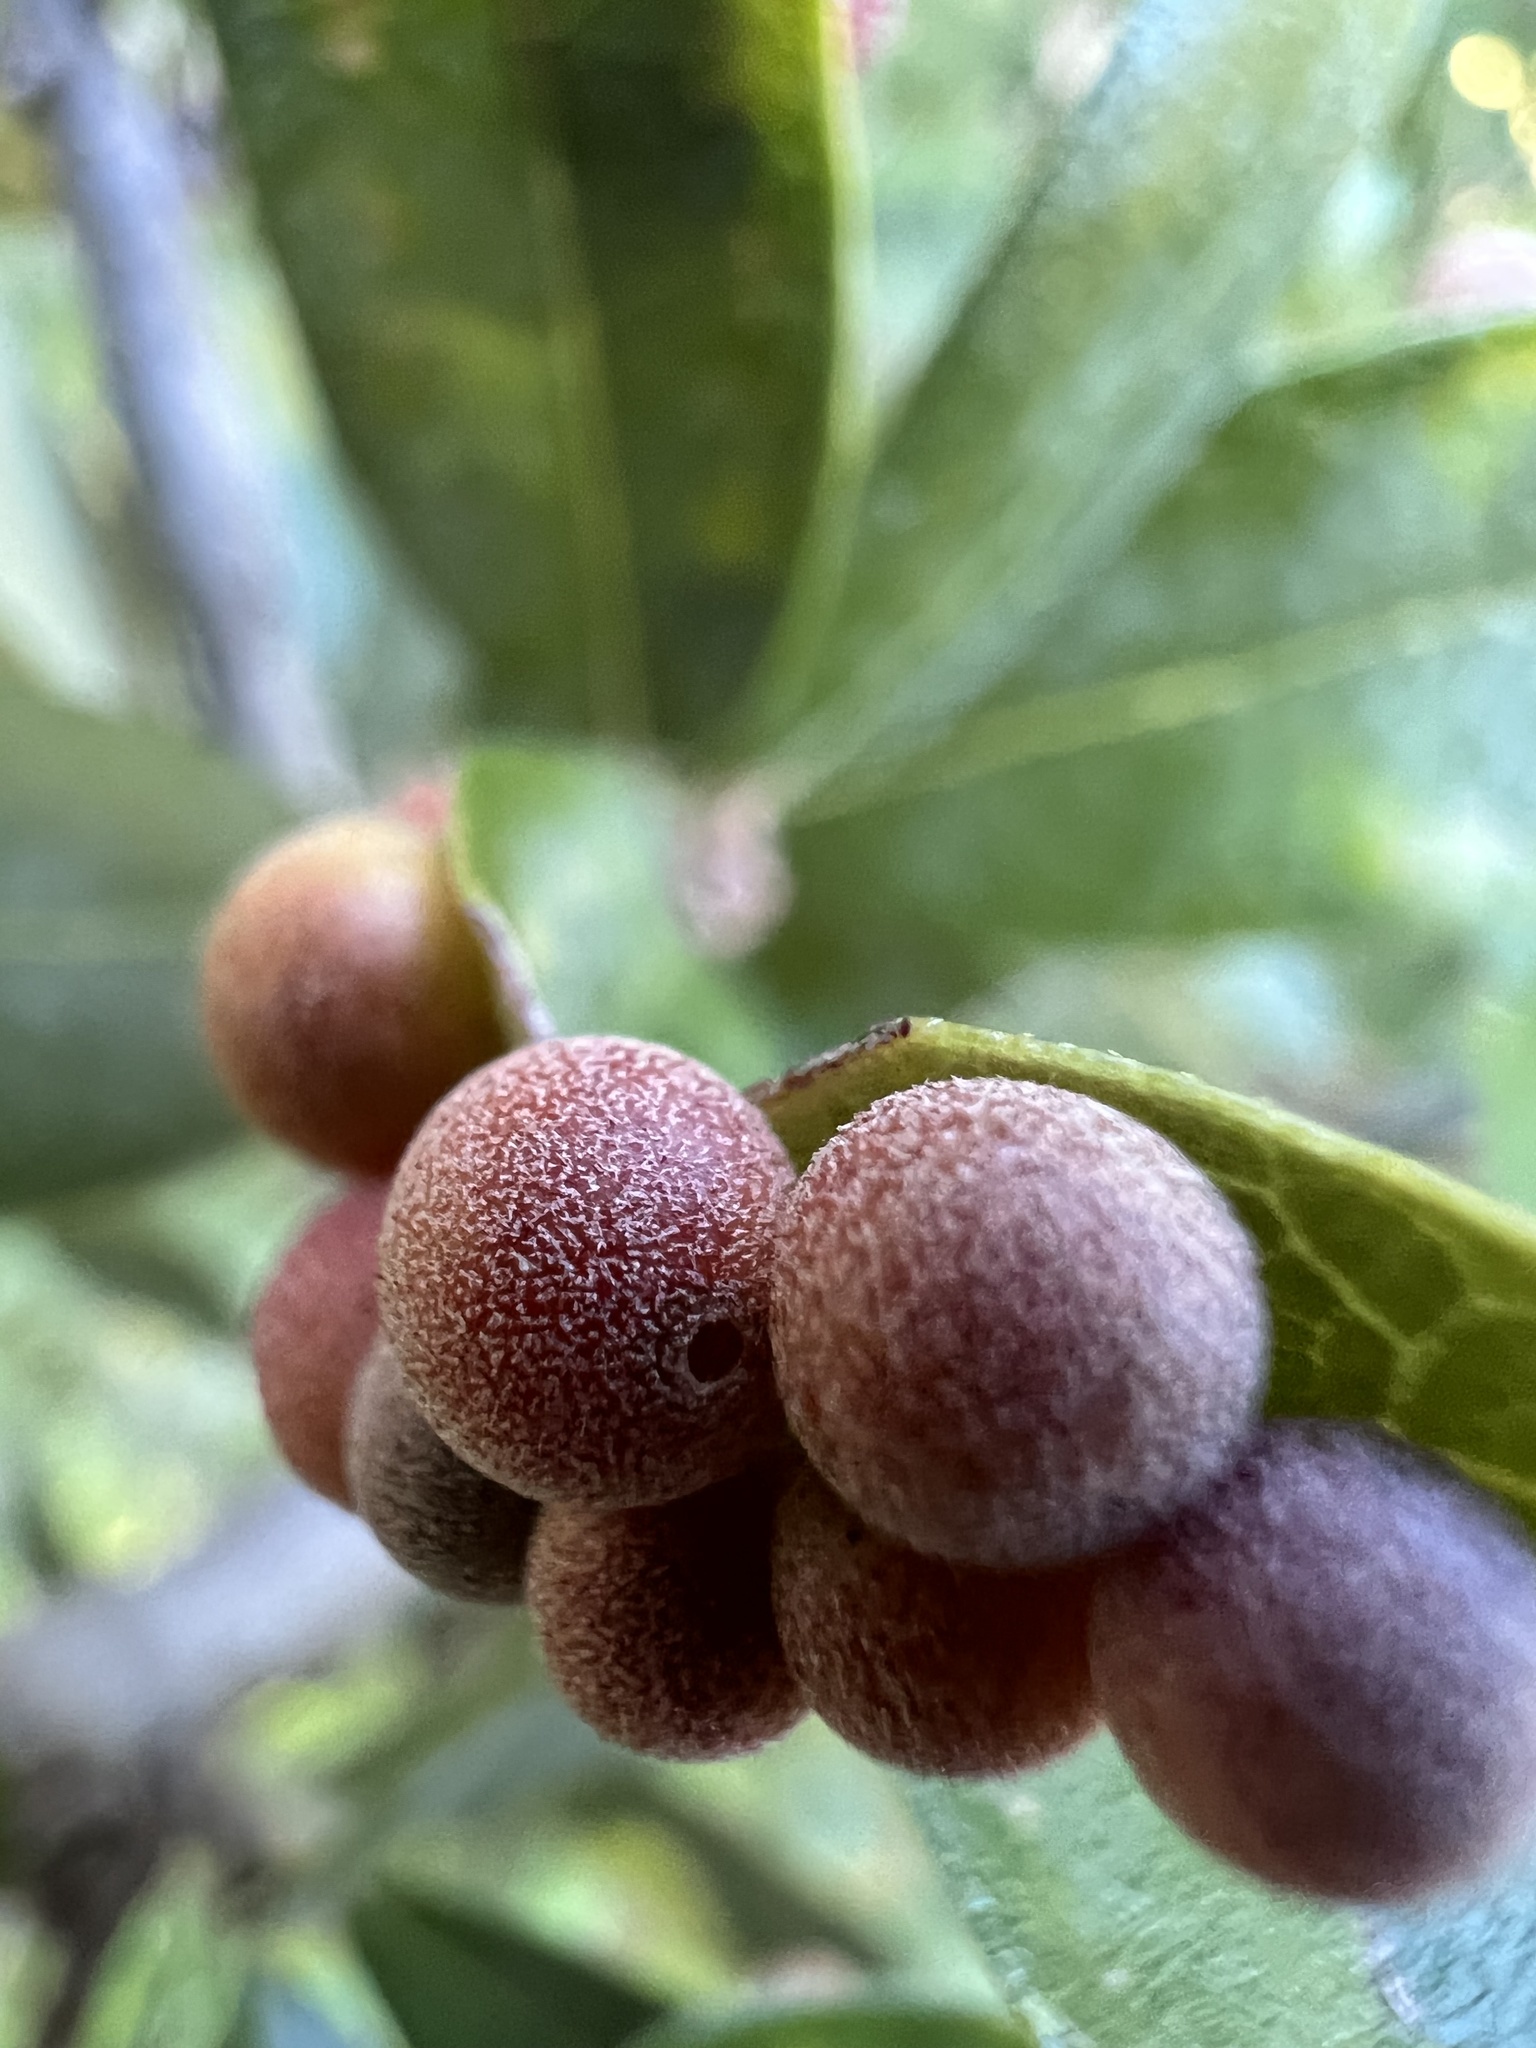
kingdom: Animalia
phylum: Arthropoda
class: Insecta
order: Hymenoptera
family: Cynipidae
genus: Belonocnema
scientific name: Belonocnema kinseyi
